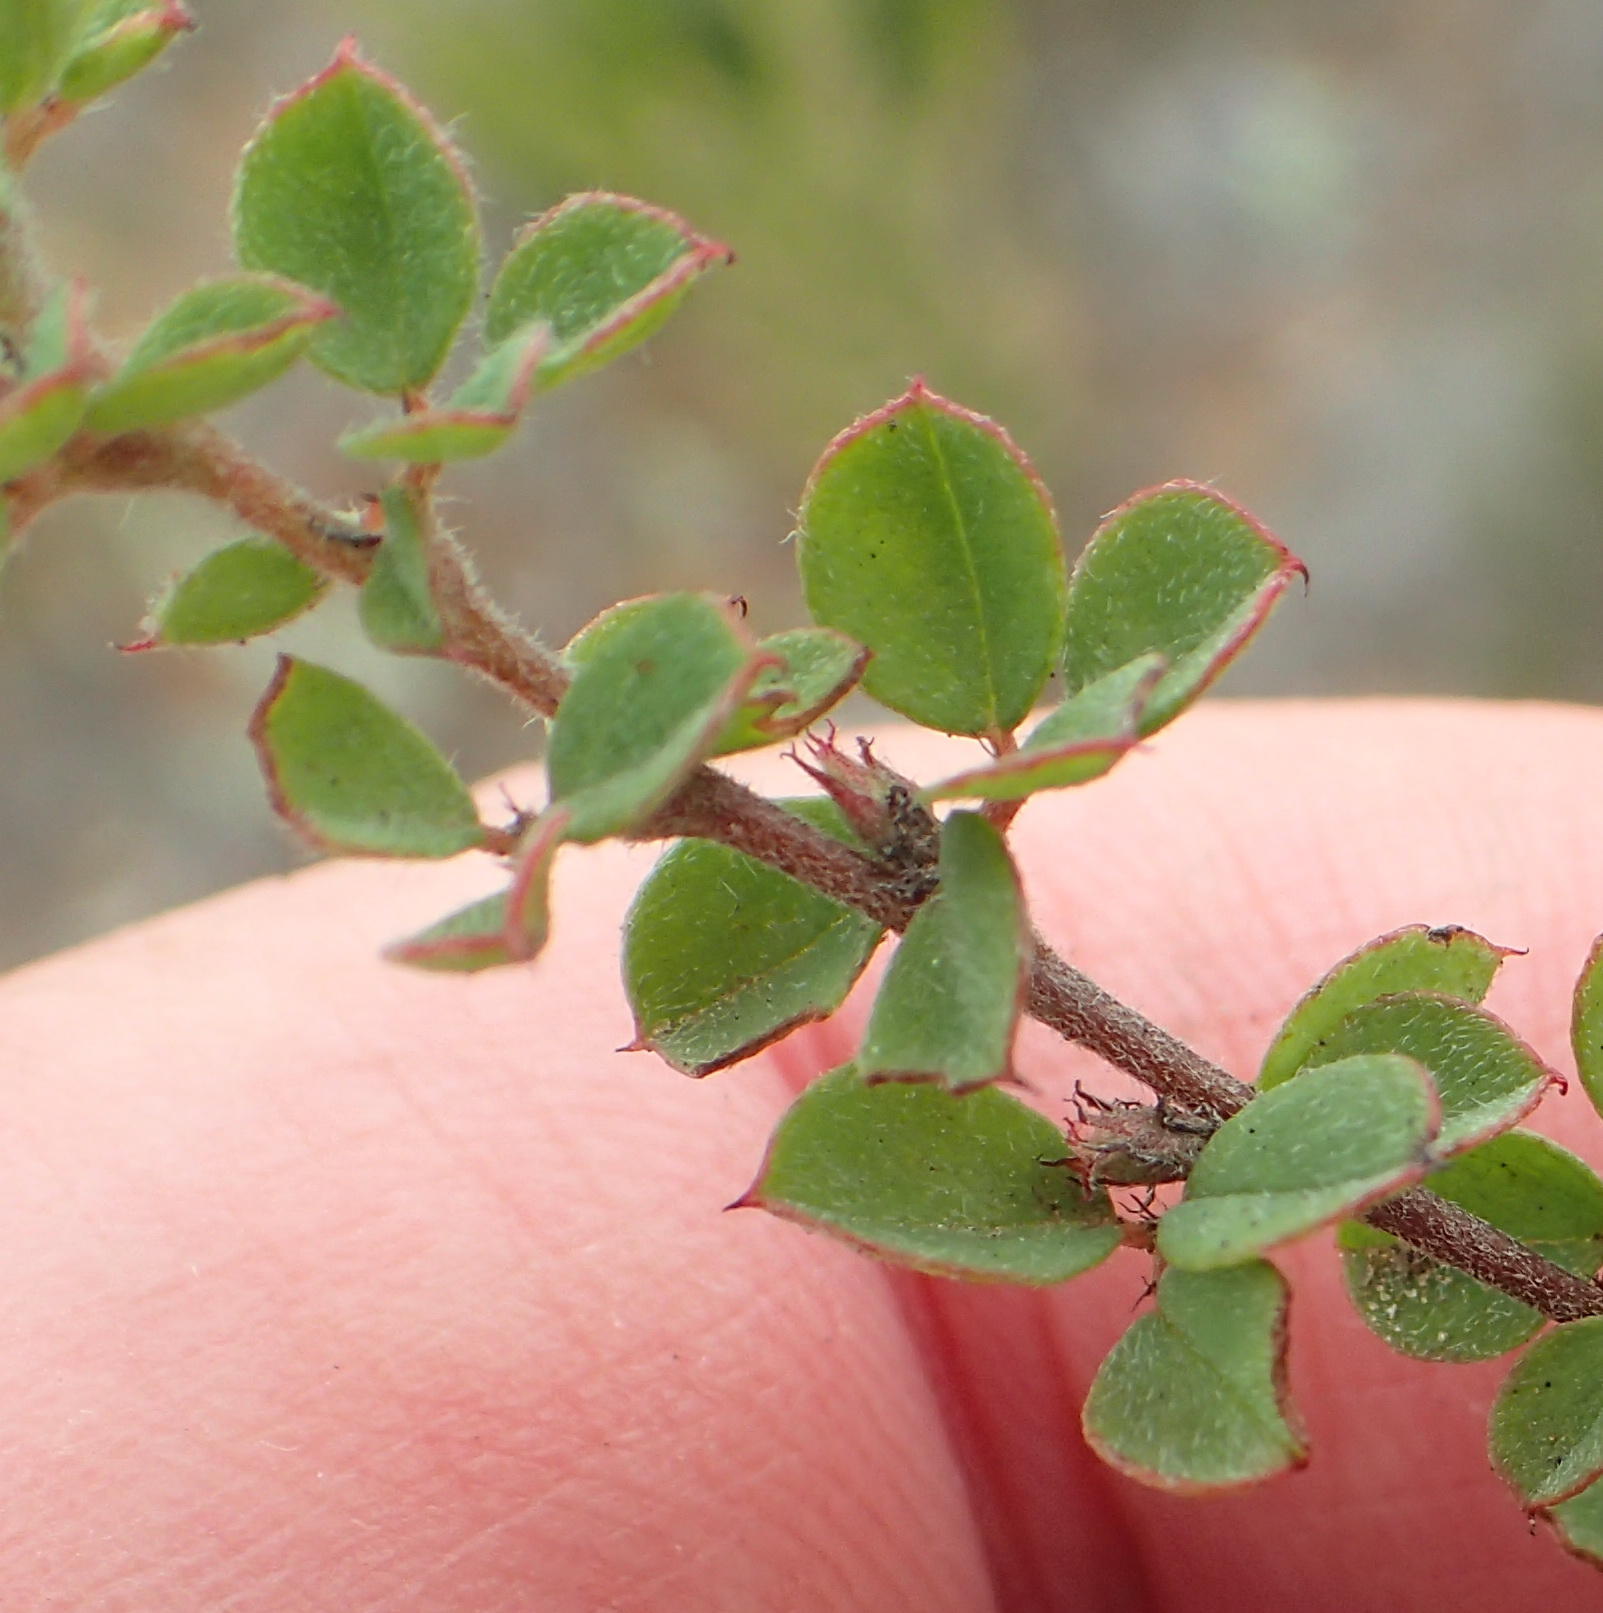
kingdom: Plantae
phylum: Tracheophyta
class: Magnoliopsida
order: Fabales
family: Fabaceae
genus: Indigofera
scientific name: Indigofera alopecuroides
